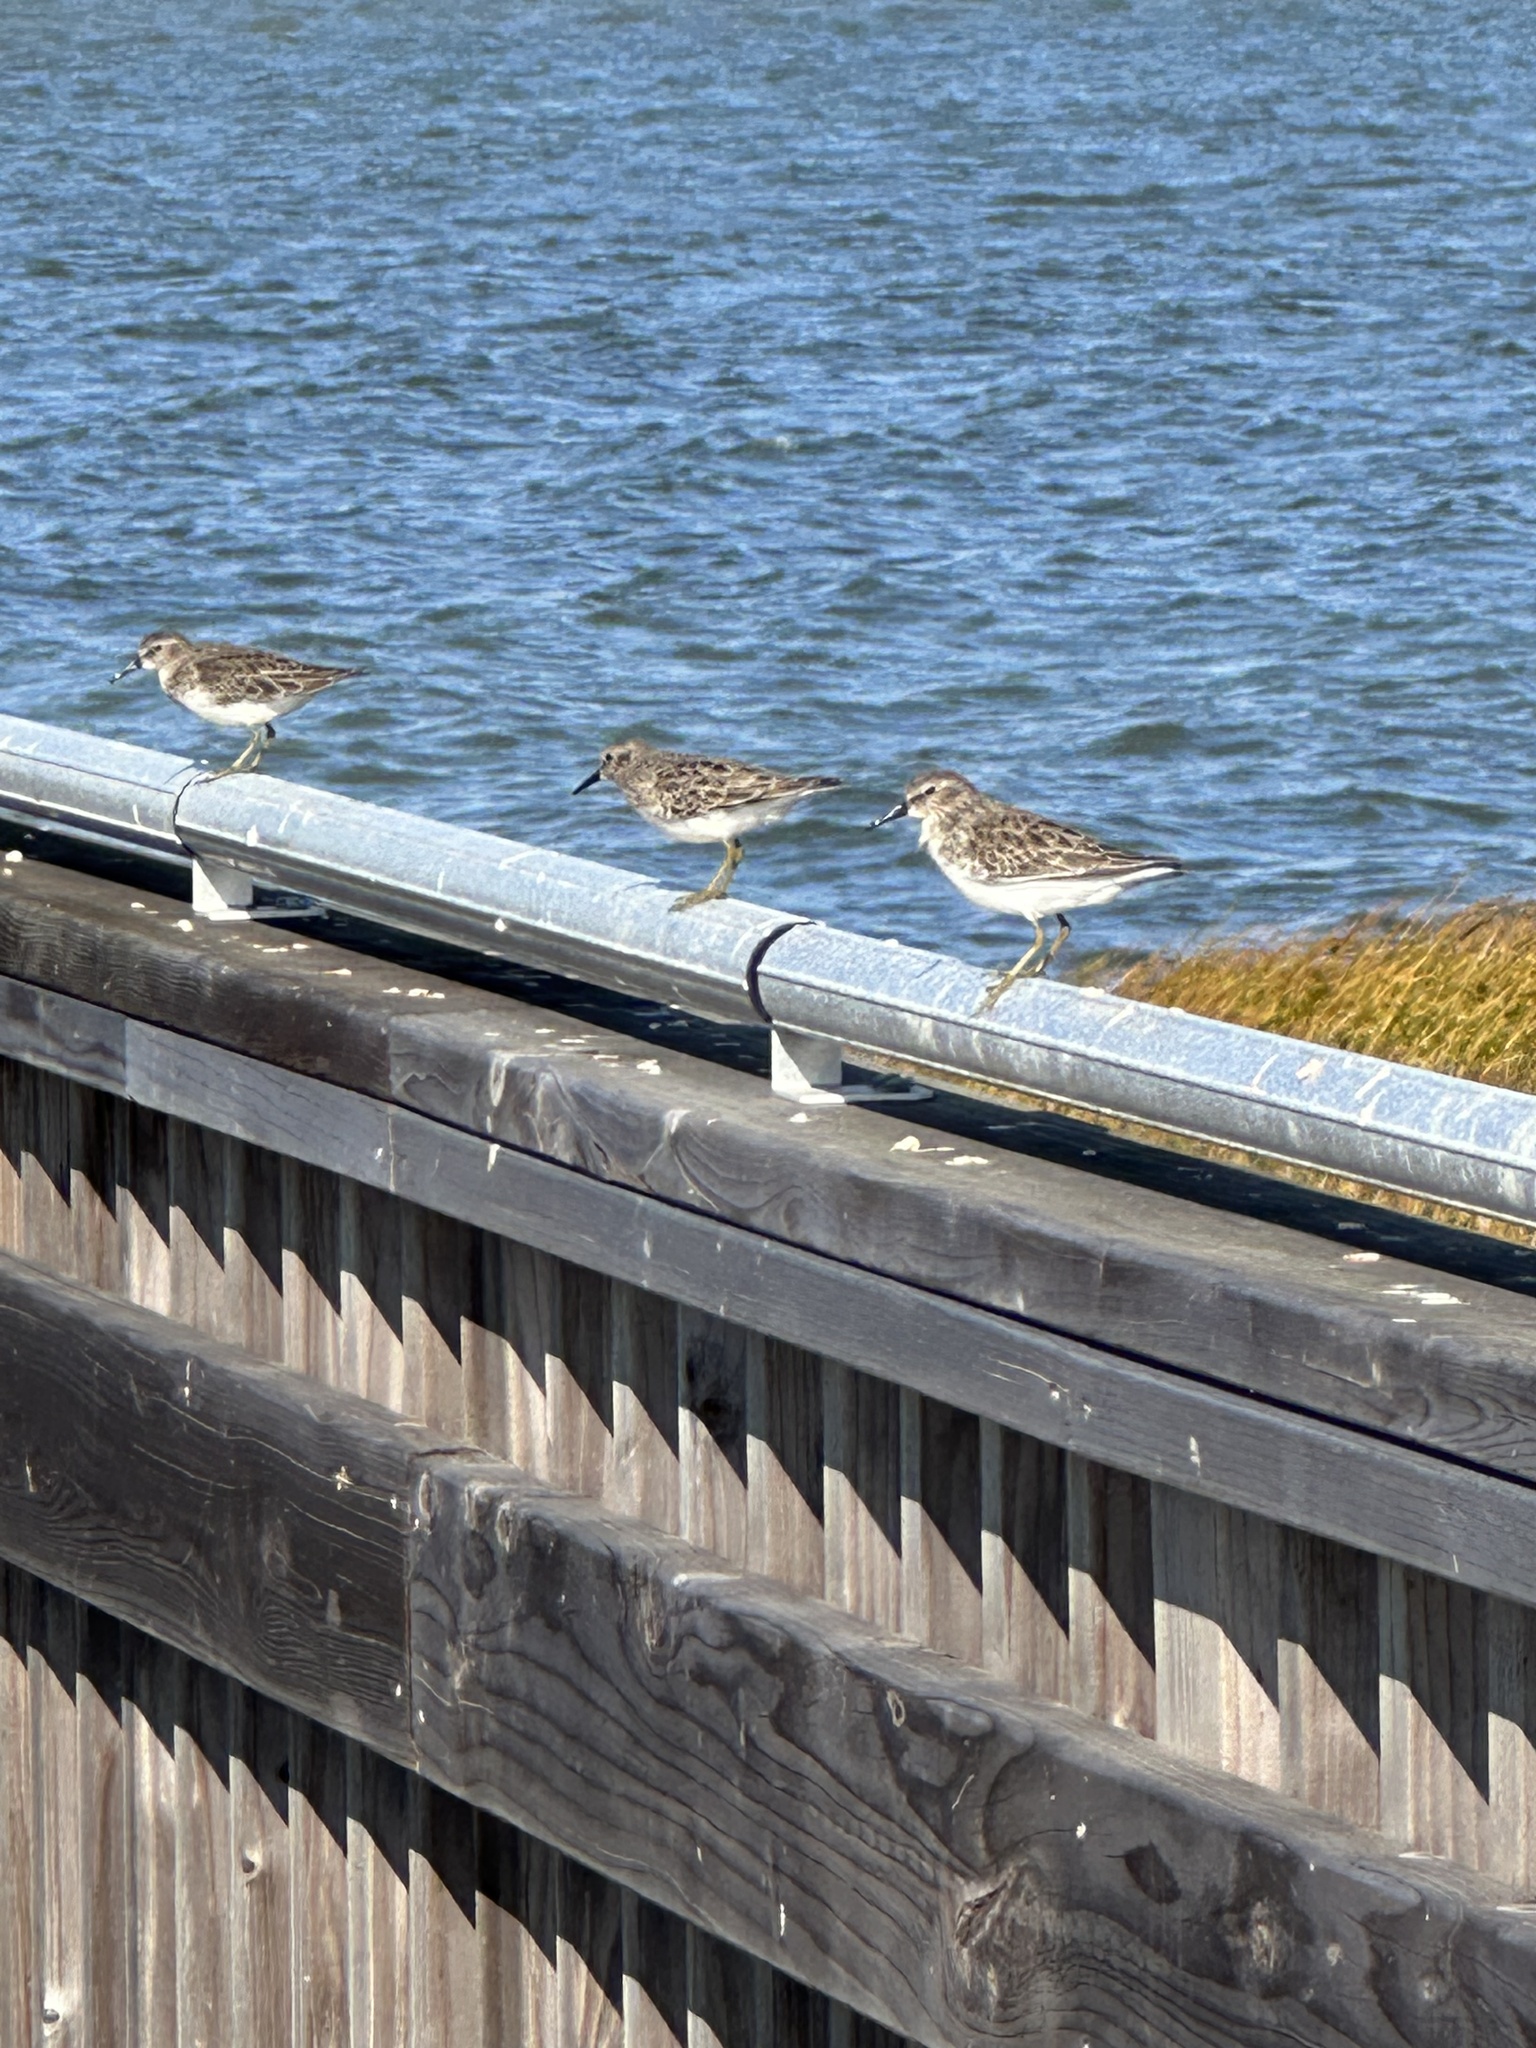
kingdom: Animalia
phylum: Chordata
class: Aves
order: Charadriiformes
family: Scolopacidae
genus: Calidris
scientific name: Calidris minutilla
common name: Least sandpiper
